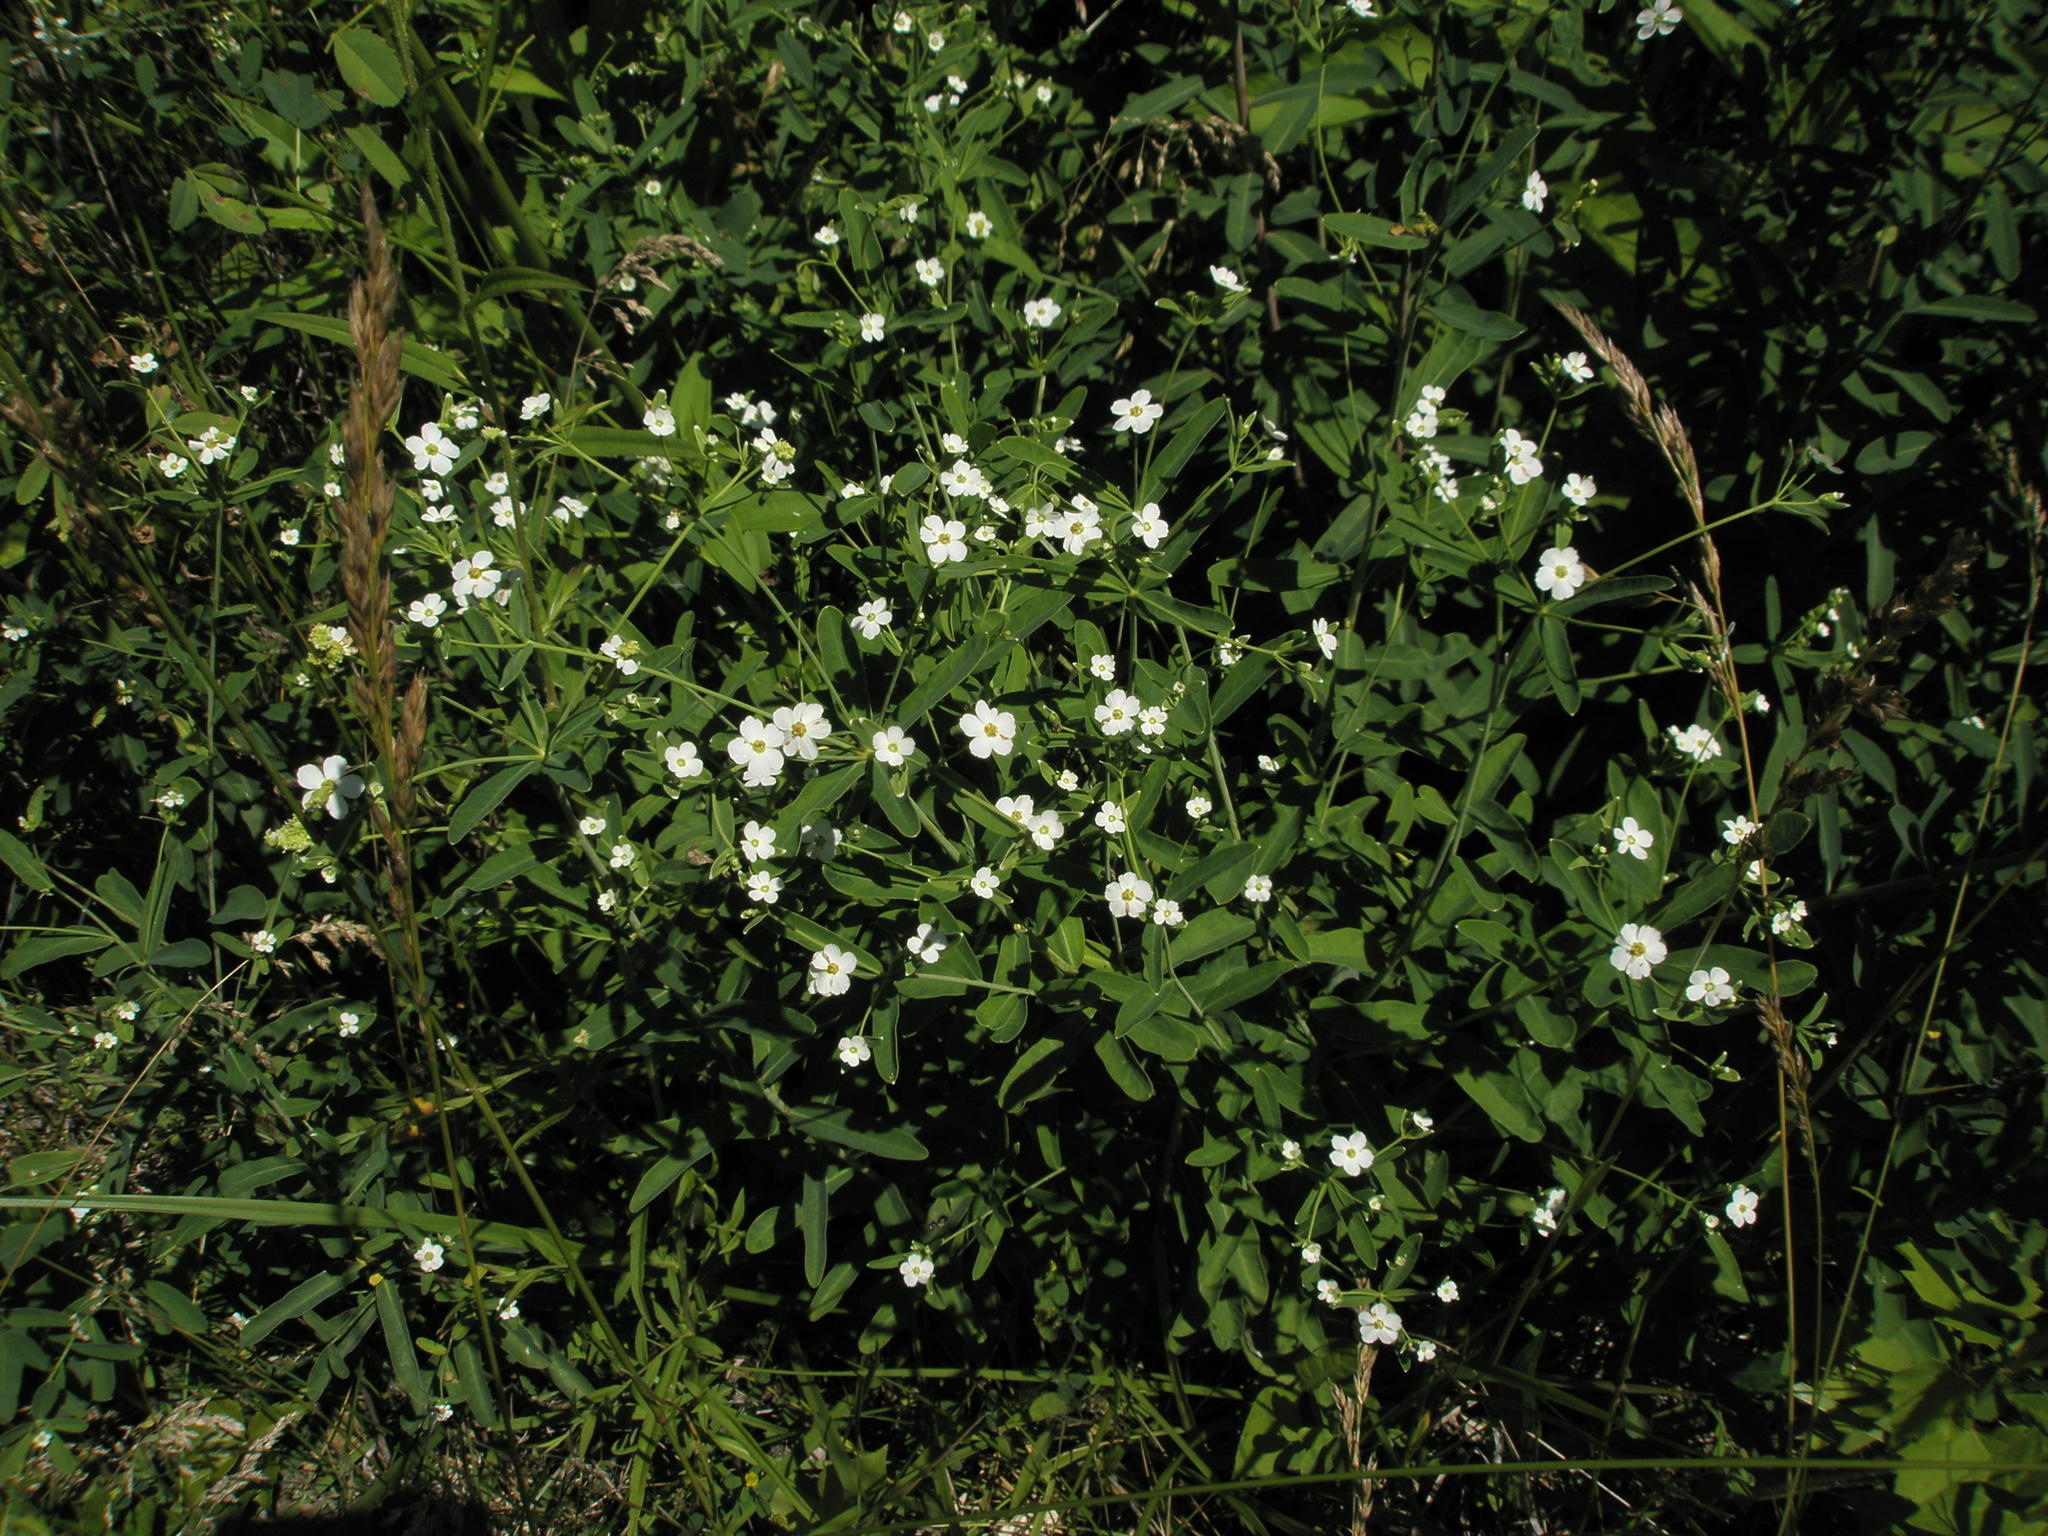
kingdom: Plantae
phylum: Tracheophyta
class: Magnoliopsida
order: Malpighiales
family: Euphorbiaceae
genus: Euphorbia
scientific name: Euphorbia corollata
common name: Flowering spurge
